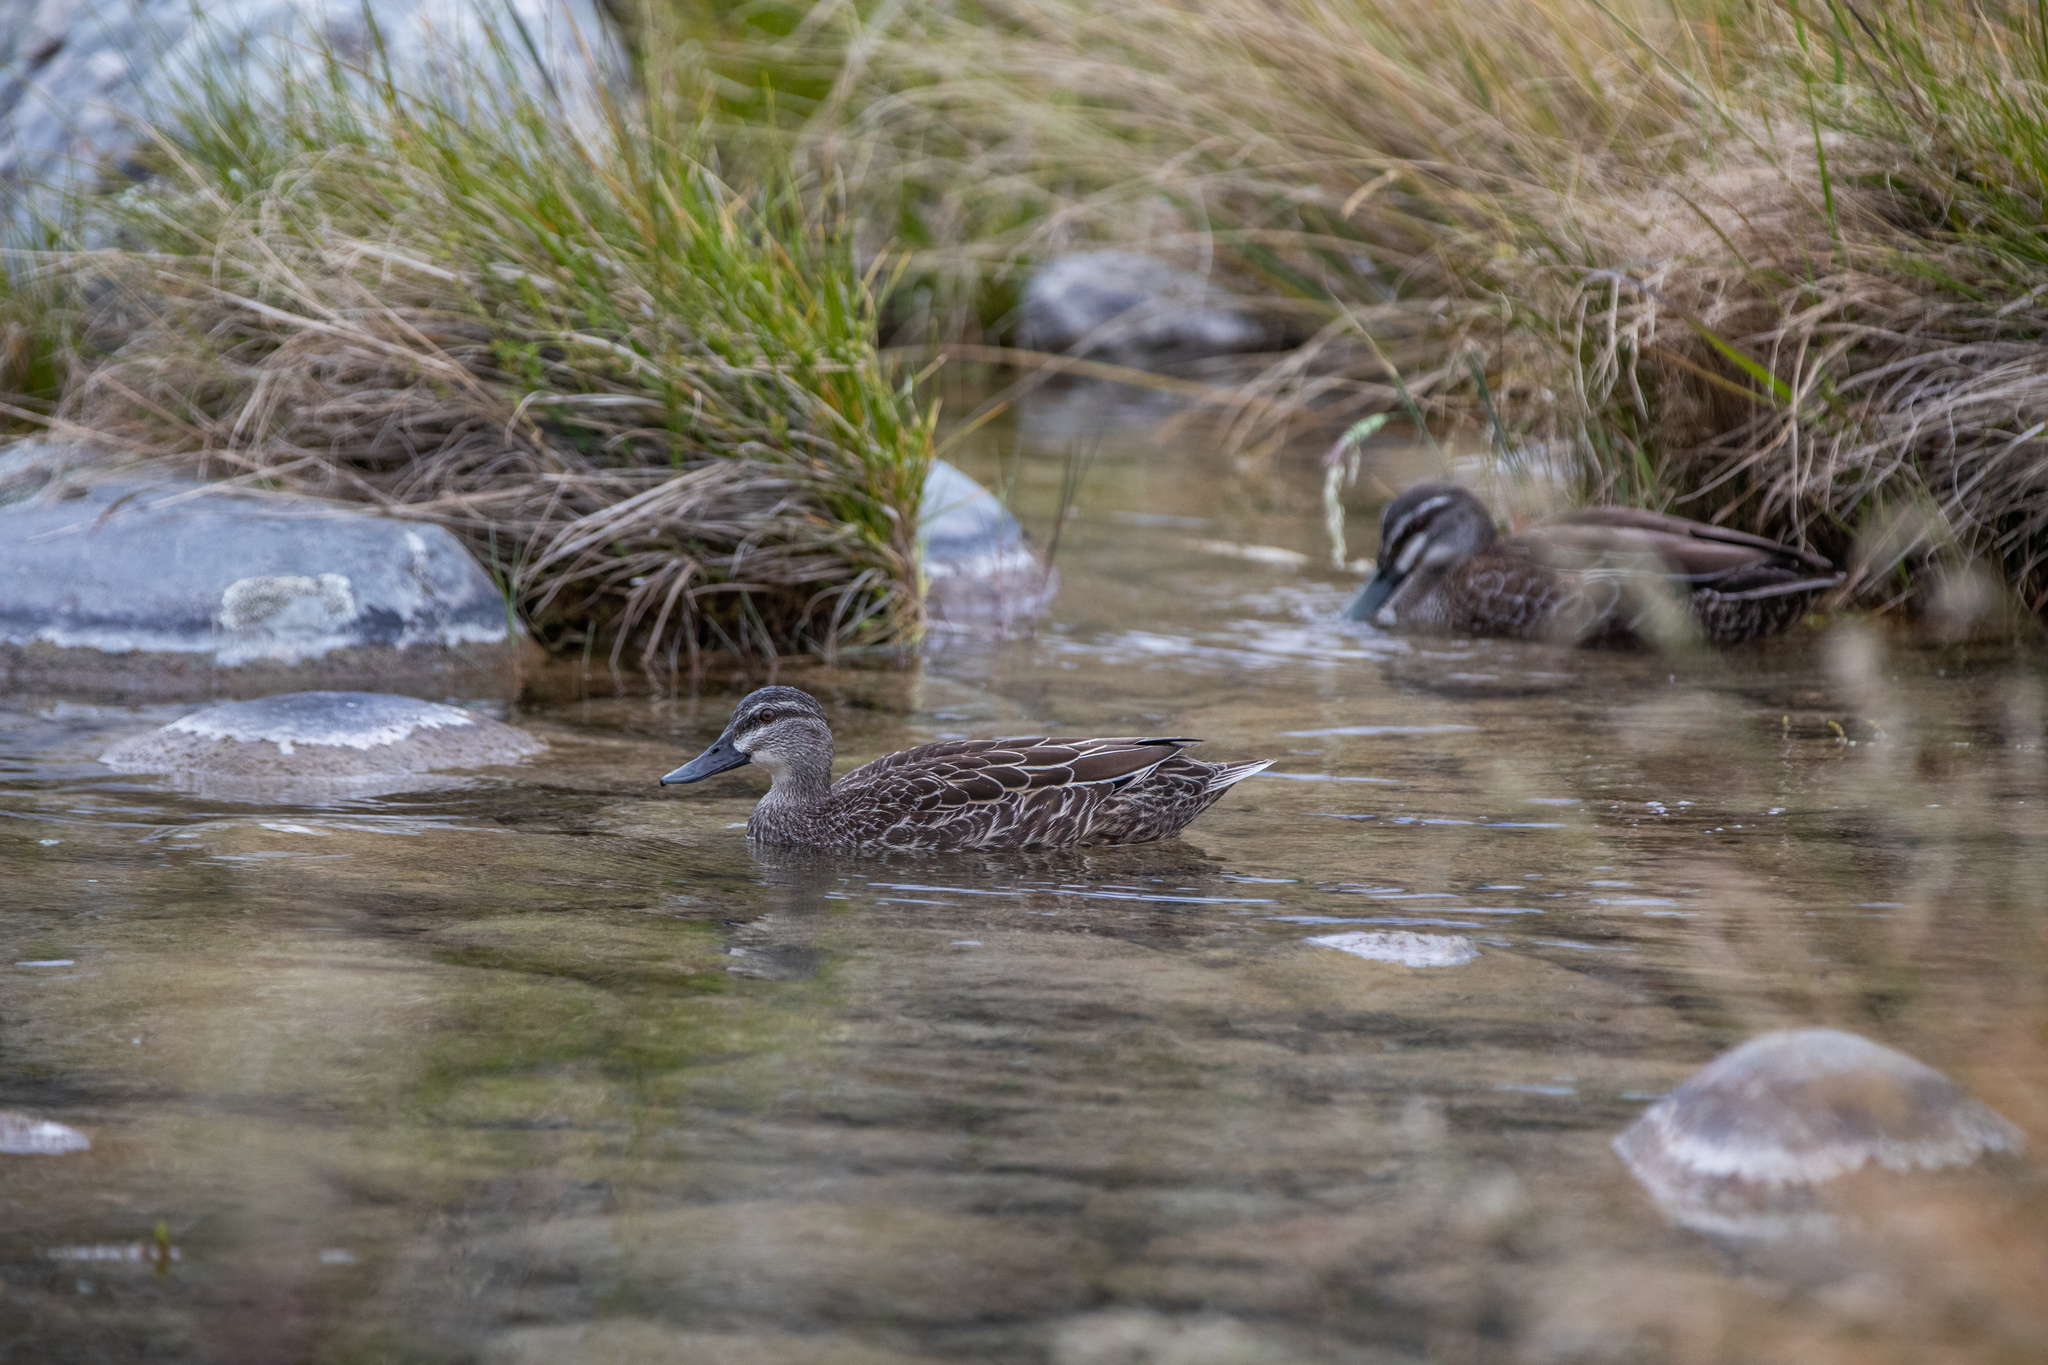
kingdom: Animalia
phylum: Chordata
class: Aves
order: Anseriformes
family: Anatidae
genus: Anas
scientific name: Anas
